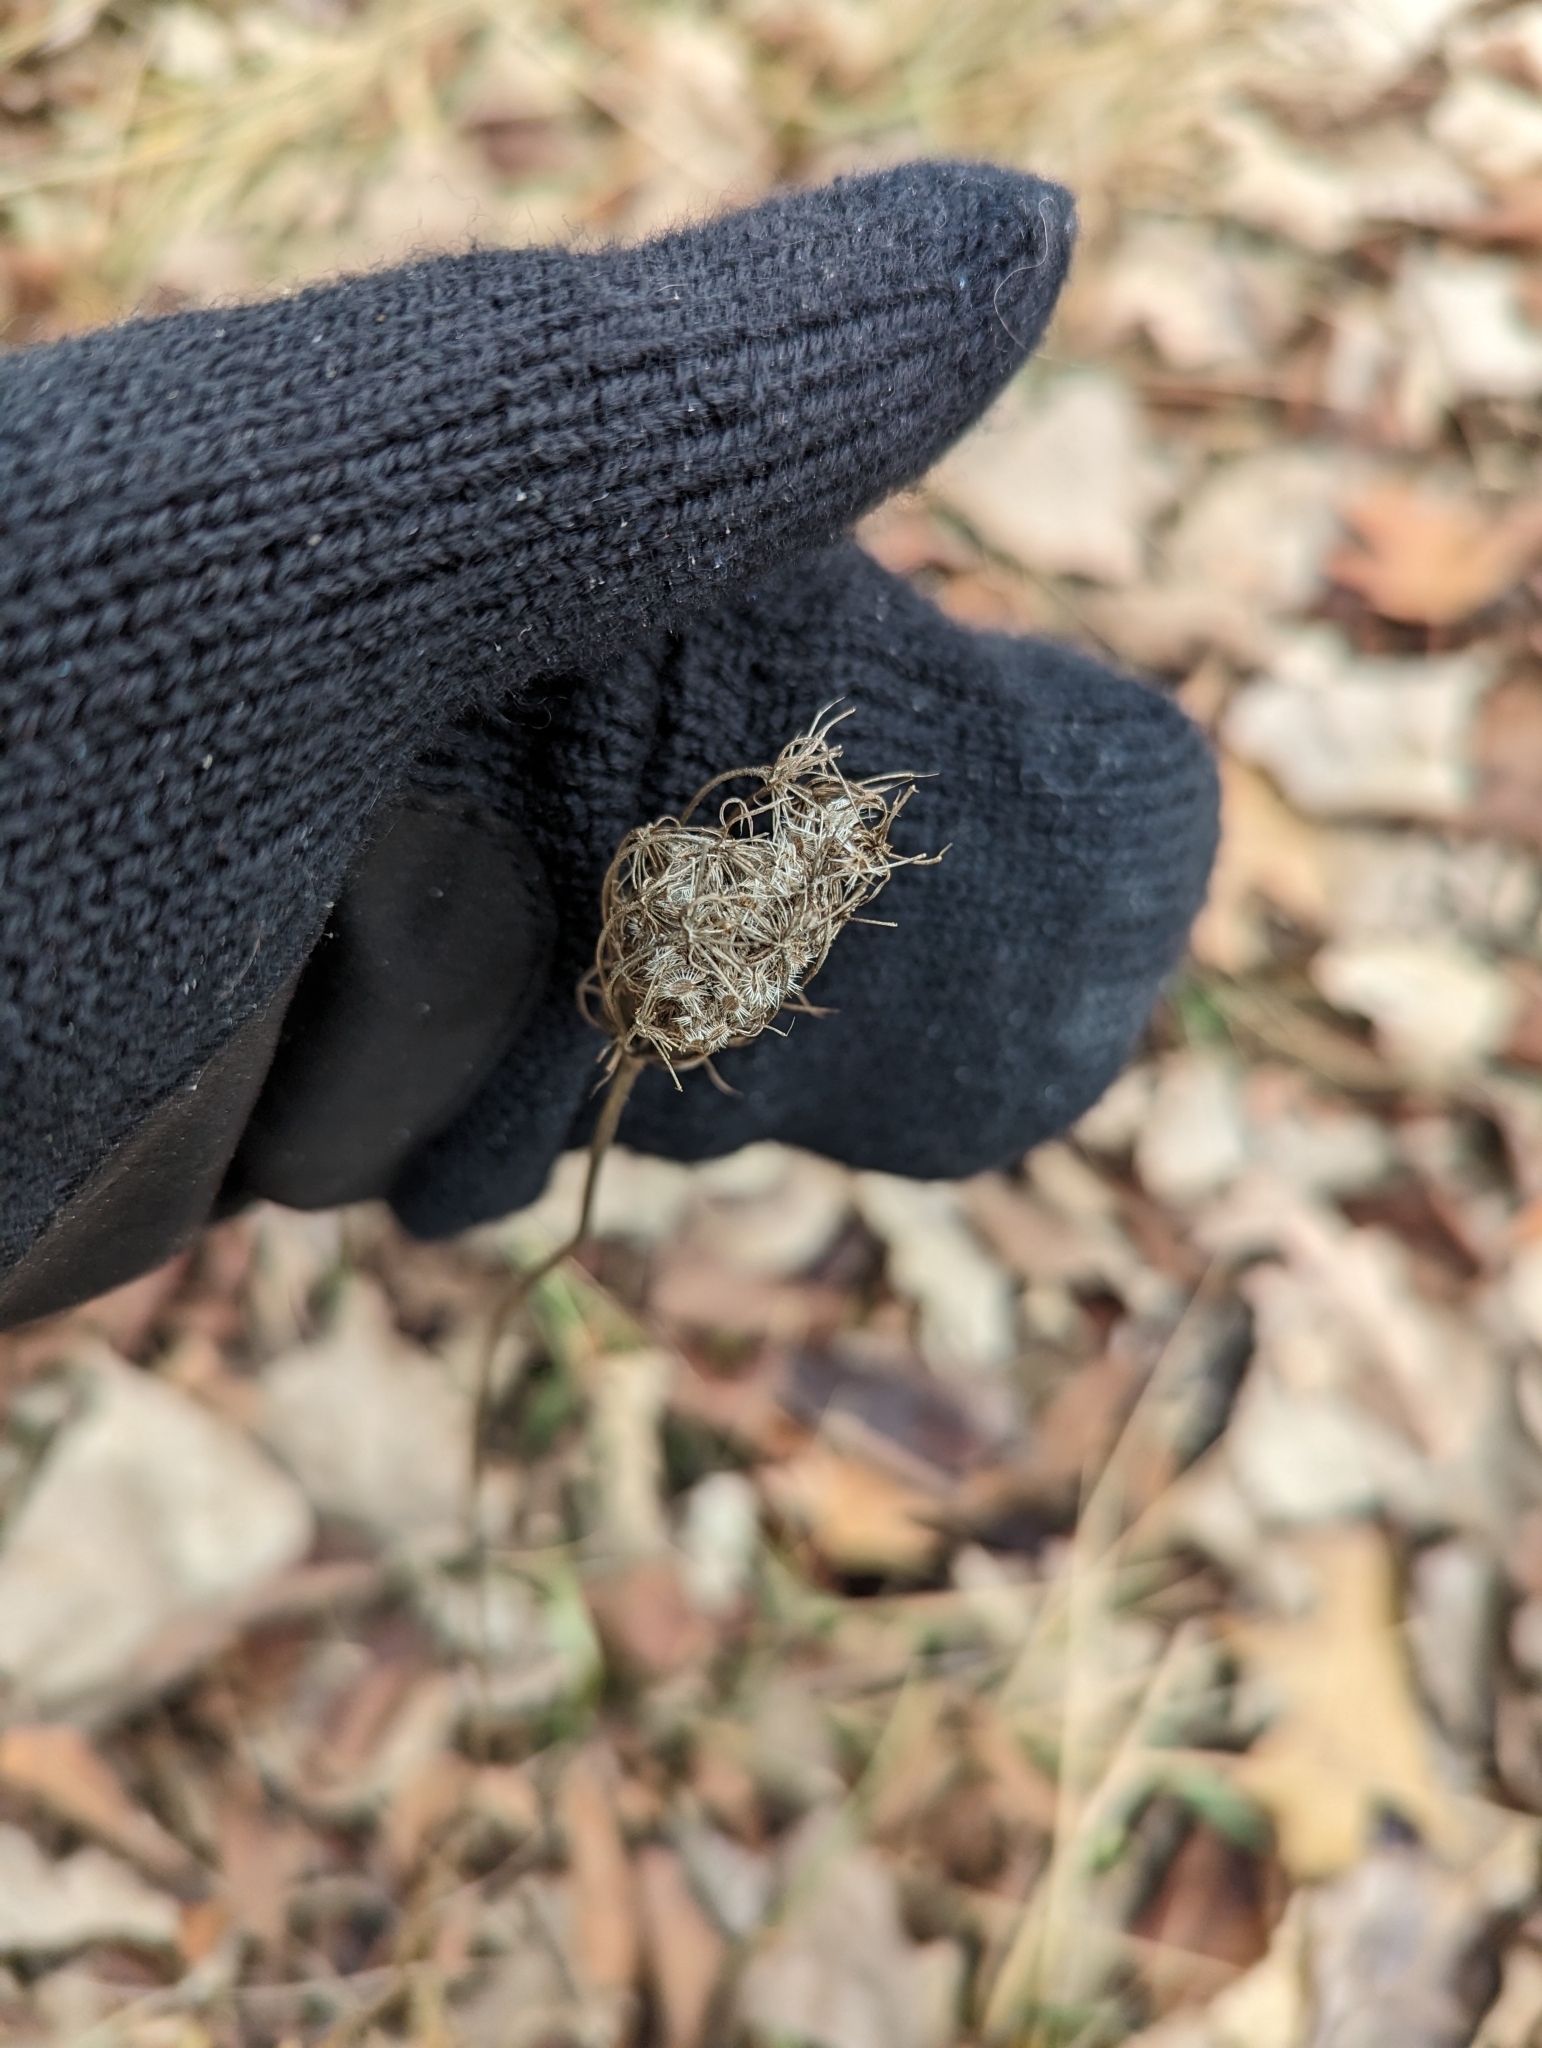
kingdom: Plantae
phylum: Tracheophyta
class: Magnoliopsida
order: Apiales
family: Apiaceae
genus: Daucus
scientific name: Daucus carota
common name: Wild carrot
